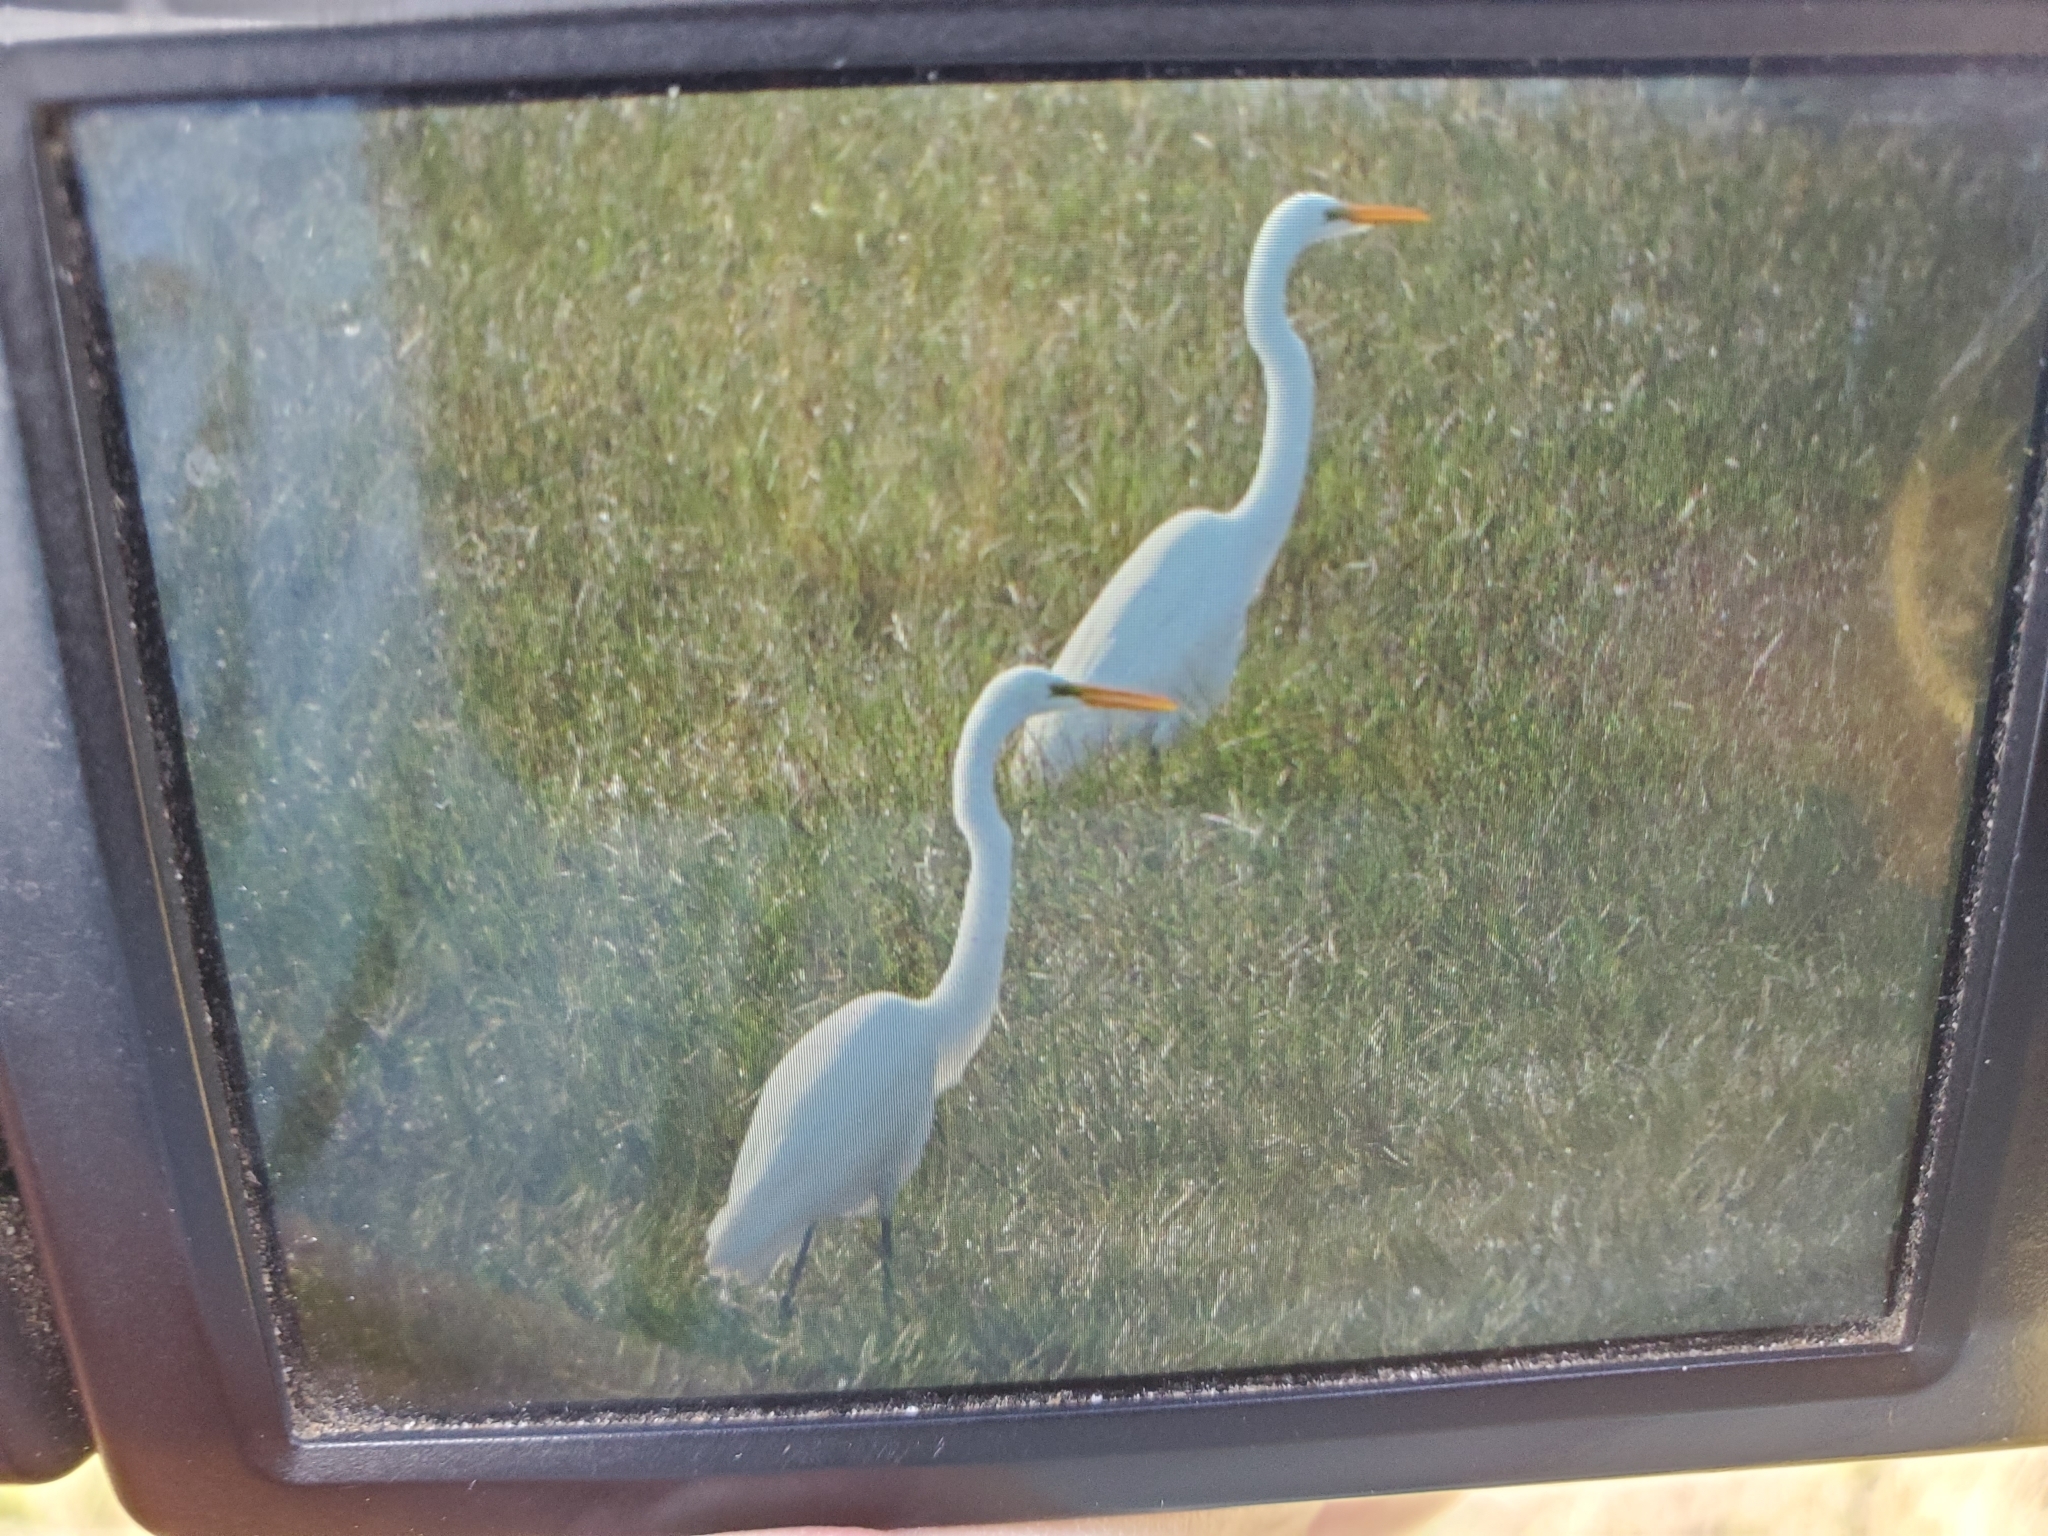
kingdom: Animalia
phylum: Chordata
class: Aves
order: Pelecaniformes
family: Ardeidae
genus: Ardea
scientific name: Ardea alba
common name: Great egret
